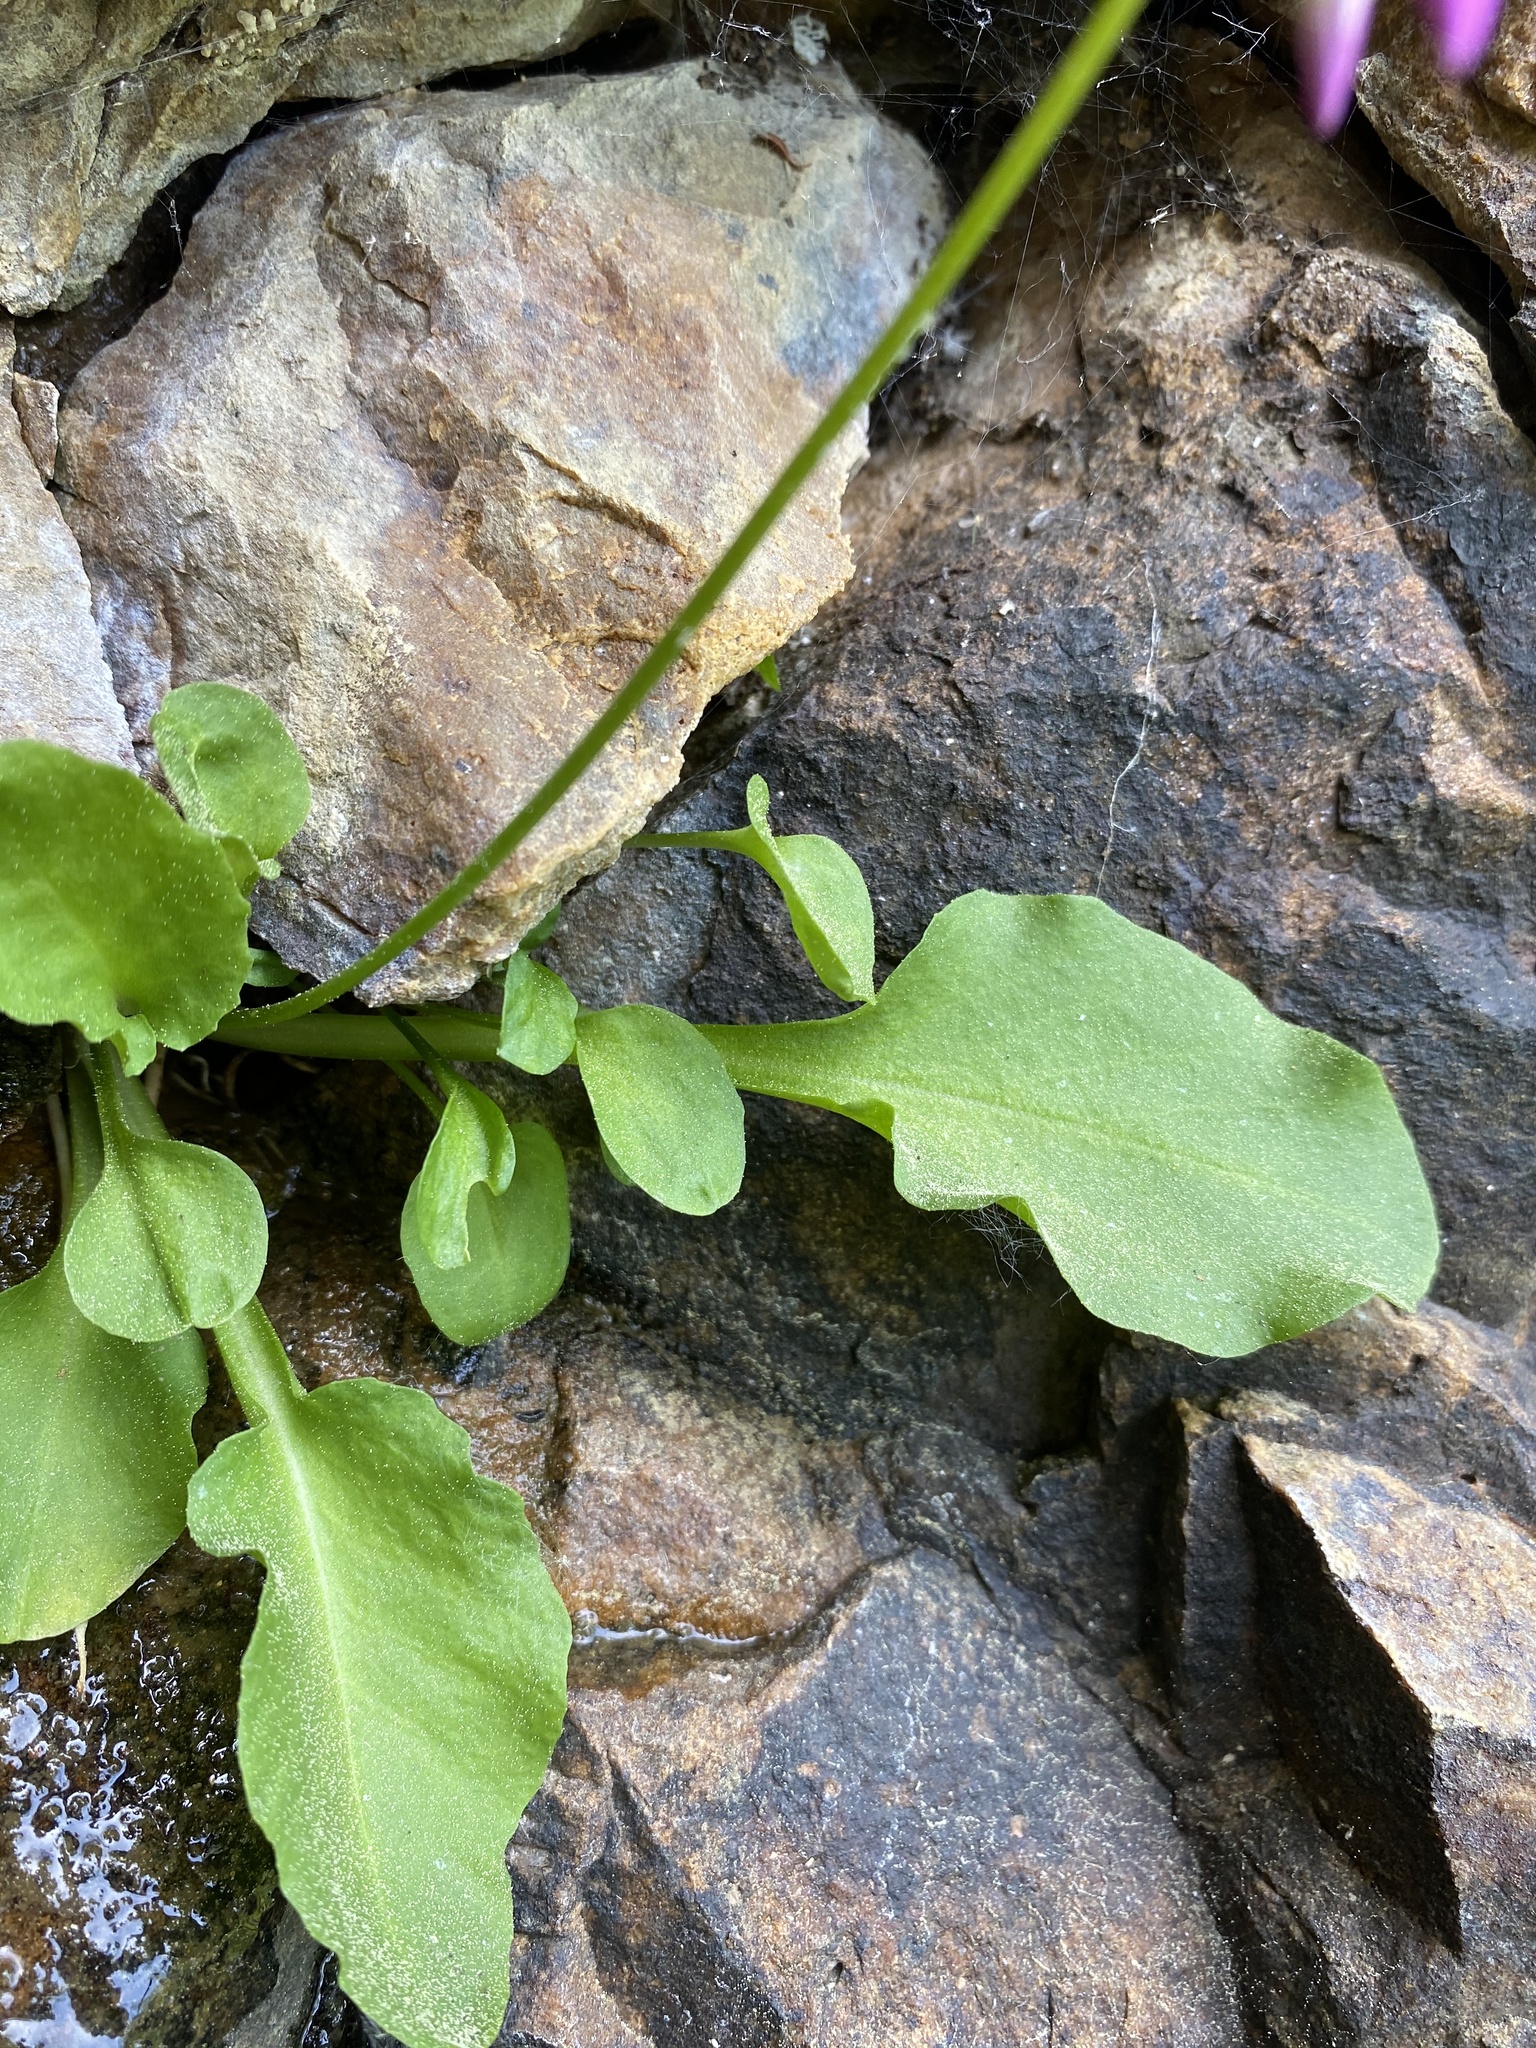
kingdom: Plantae
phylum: Tracheophyta
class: Magnoliopsida
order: Ericales
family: Primulaceae
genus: Dodecatheon
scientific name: Dodecatheon utahense
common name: Wasatch shootingstar
